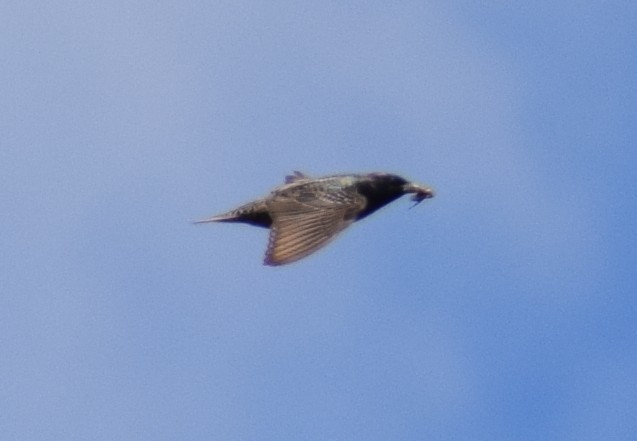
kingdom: Animalia
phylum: Chordata
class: Aves
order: Passeriformes
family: Sturnidae
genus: Sturnus
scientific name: Sturnus vulgaris
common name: Common starling
